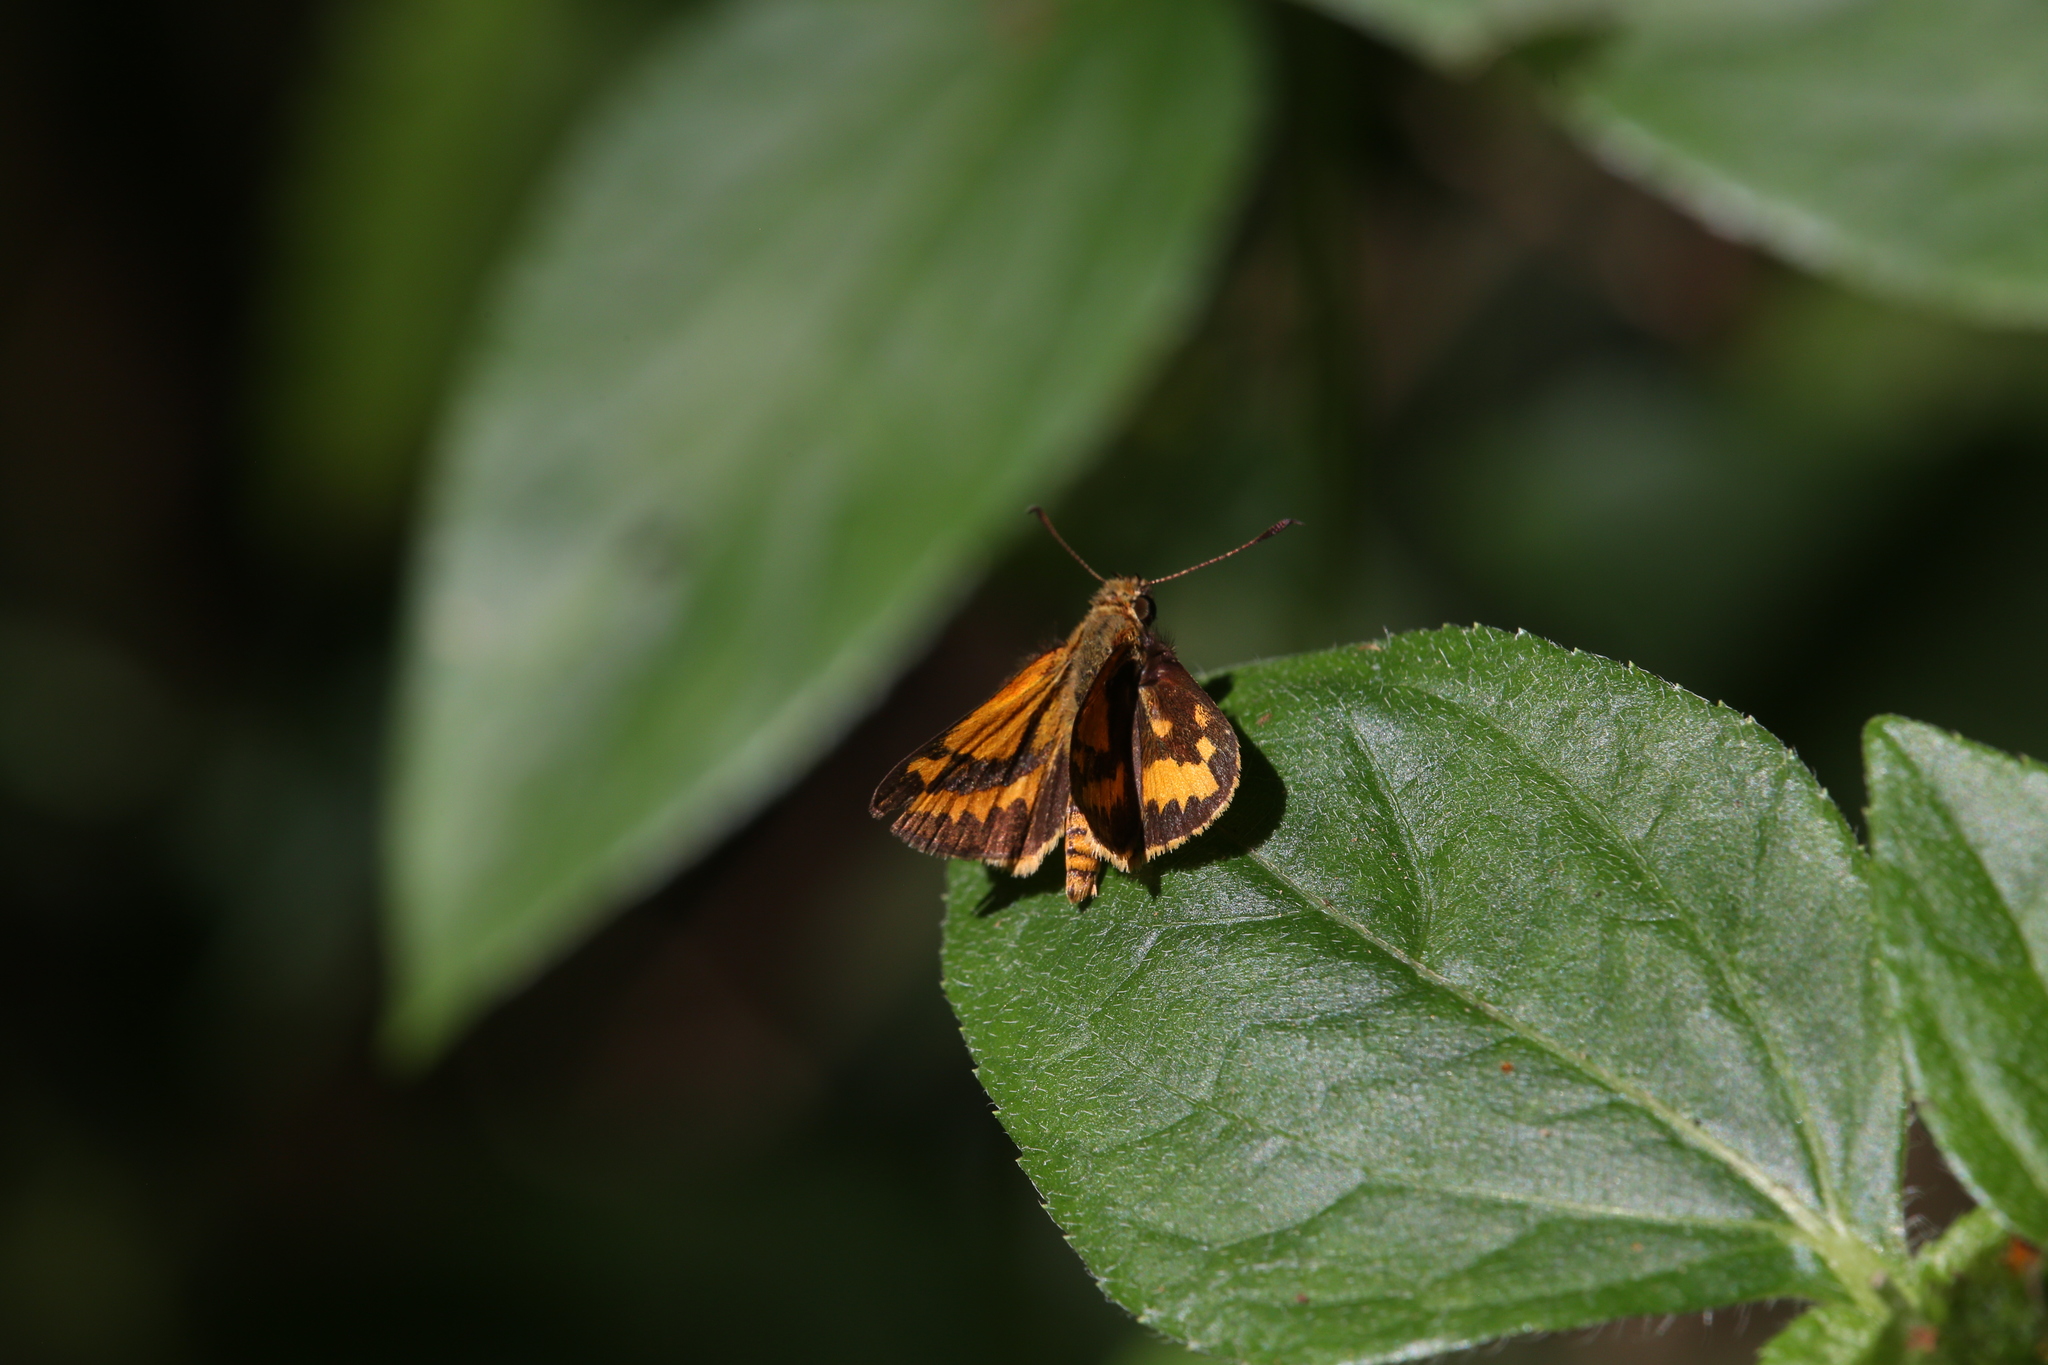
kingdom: Animalia
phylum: Arthropoda
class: Insecta
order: Lepidoptera
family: Hesperiidae
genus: Suniana
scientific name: Suniana sunias
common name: Wide-brand grass-dart
